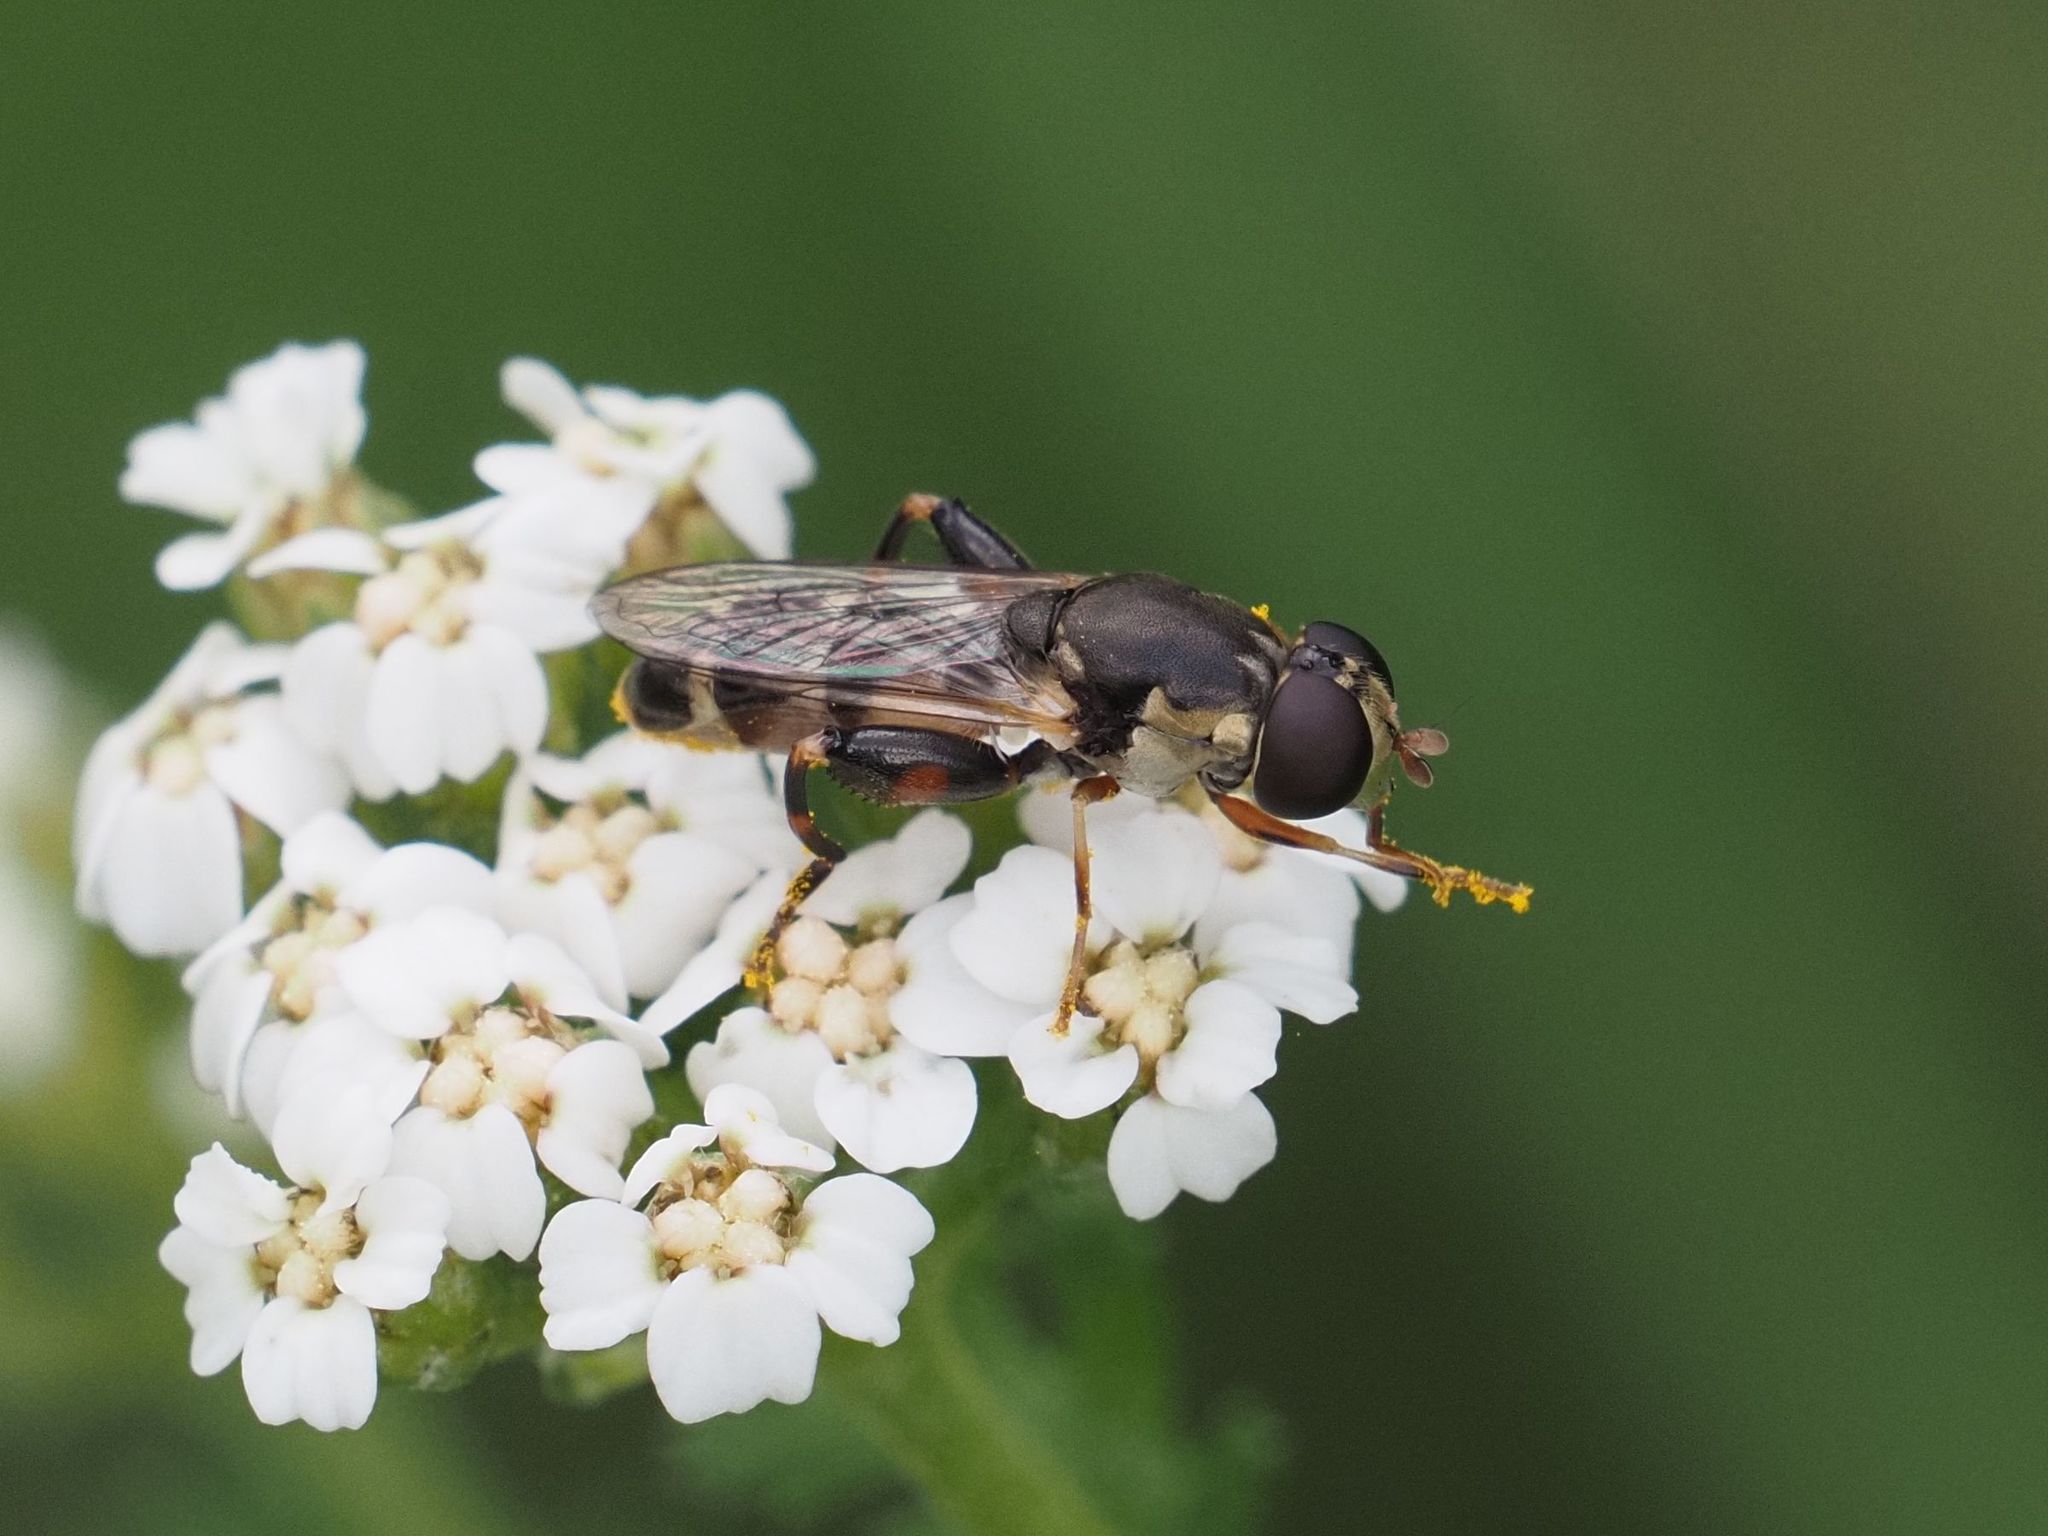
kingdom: Animalia
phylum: Arthropoda
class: Insecta
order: Diptera
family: Syrphidae
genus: Syritta
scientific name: Syritta pipiens
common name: Hover fly
